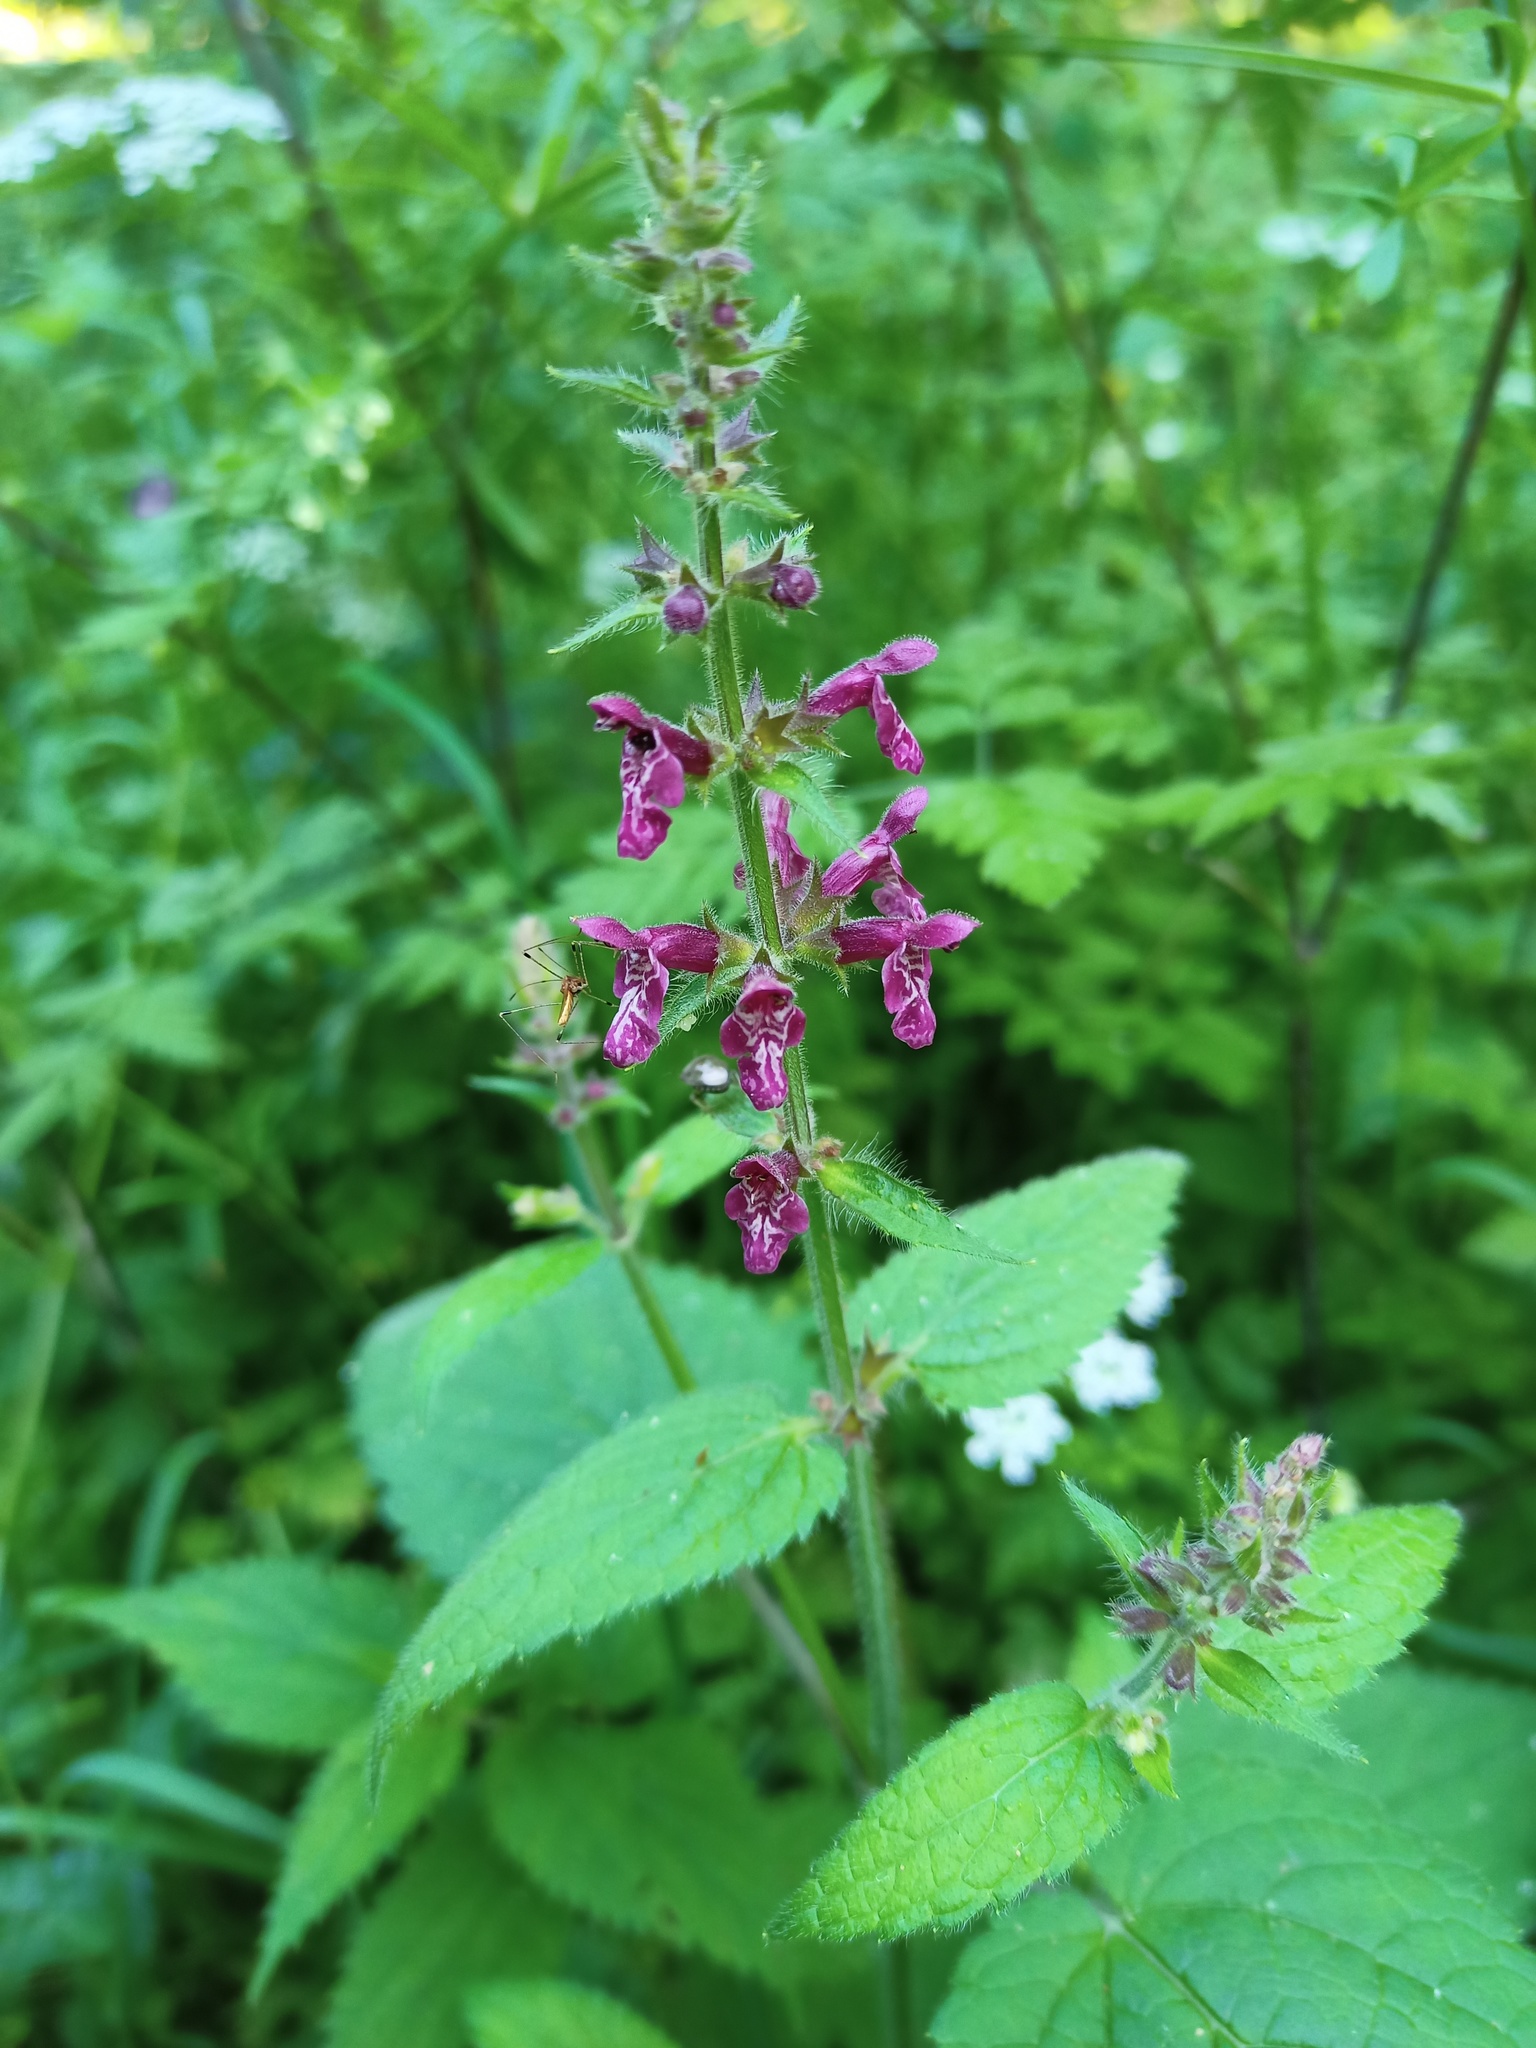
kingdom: Plantae
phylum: Tracheophyta
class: Magnoliopsida
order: Lamiales
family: Lamiaceae
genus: Stachys
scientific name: Stachys sylvatica
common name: Hedge woundwort
